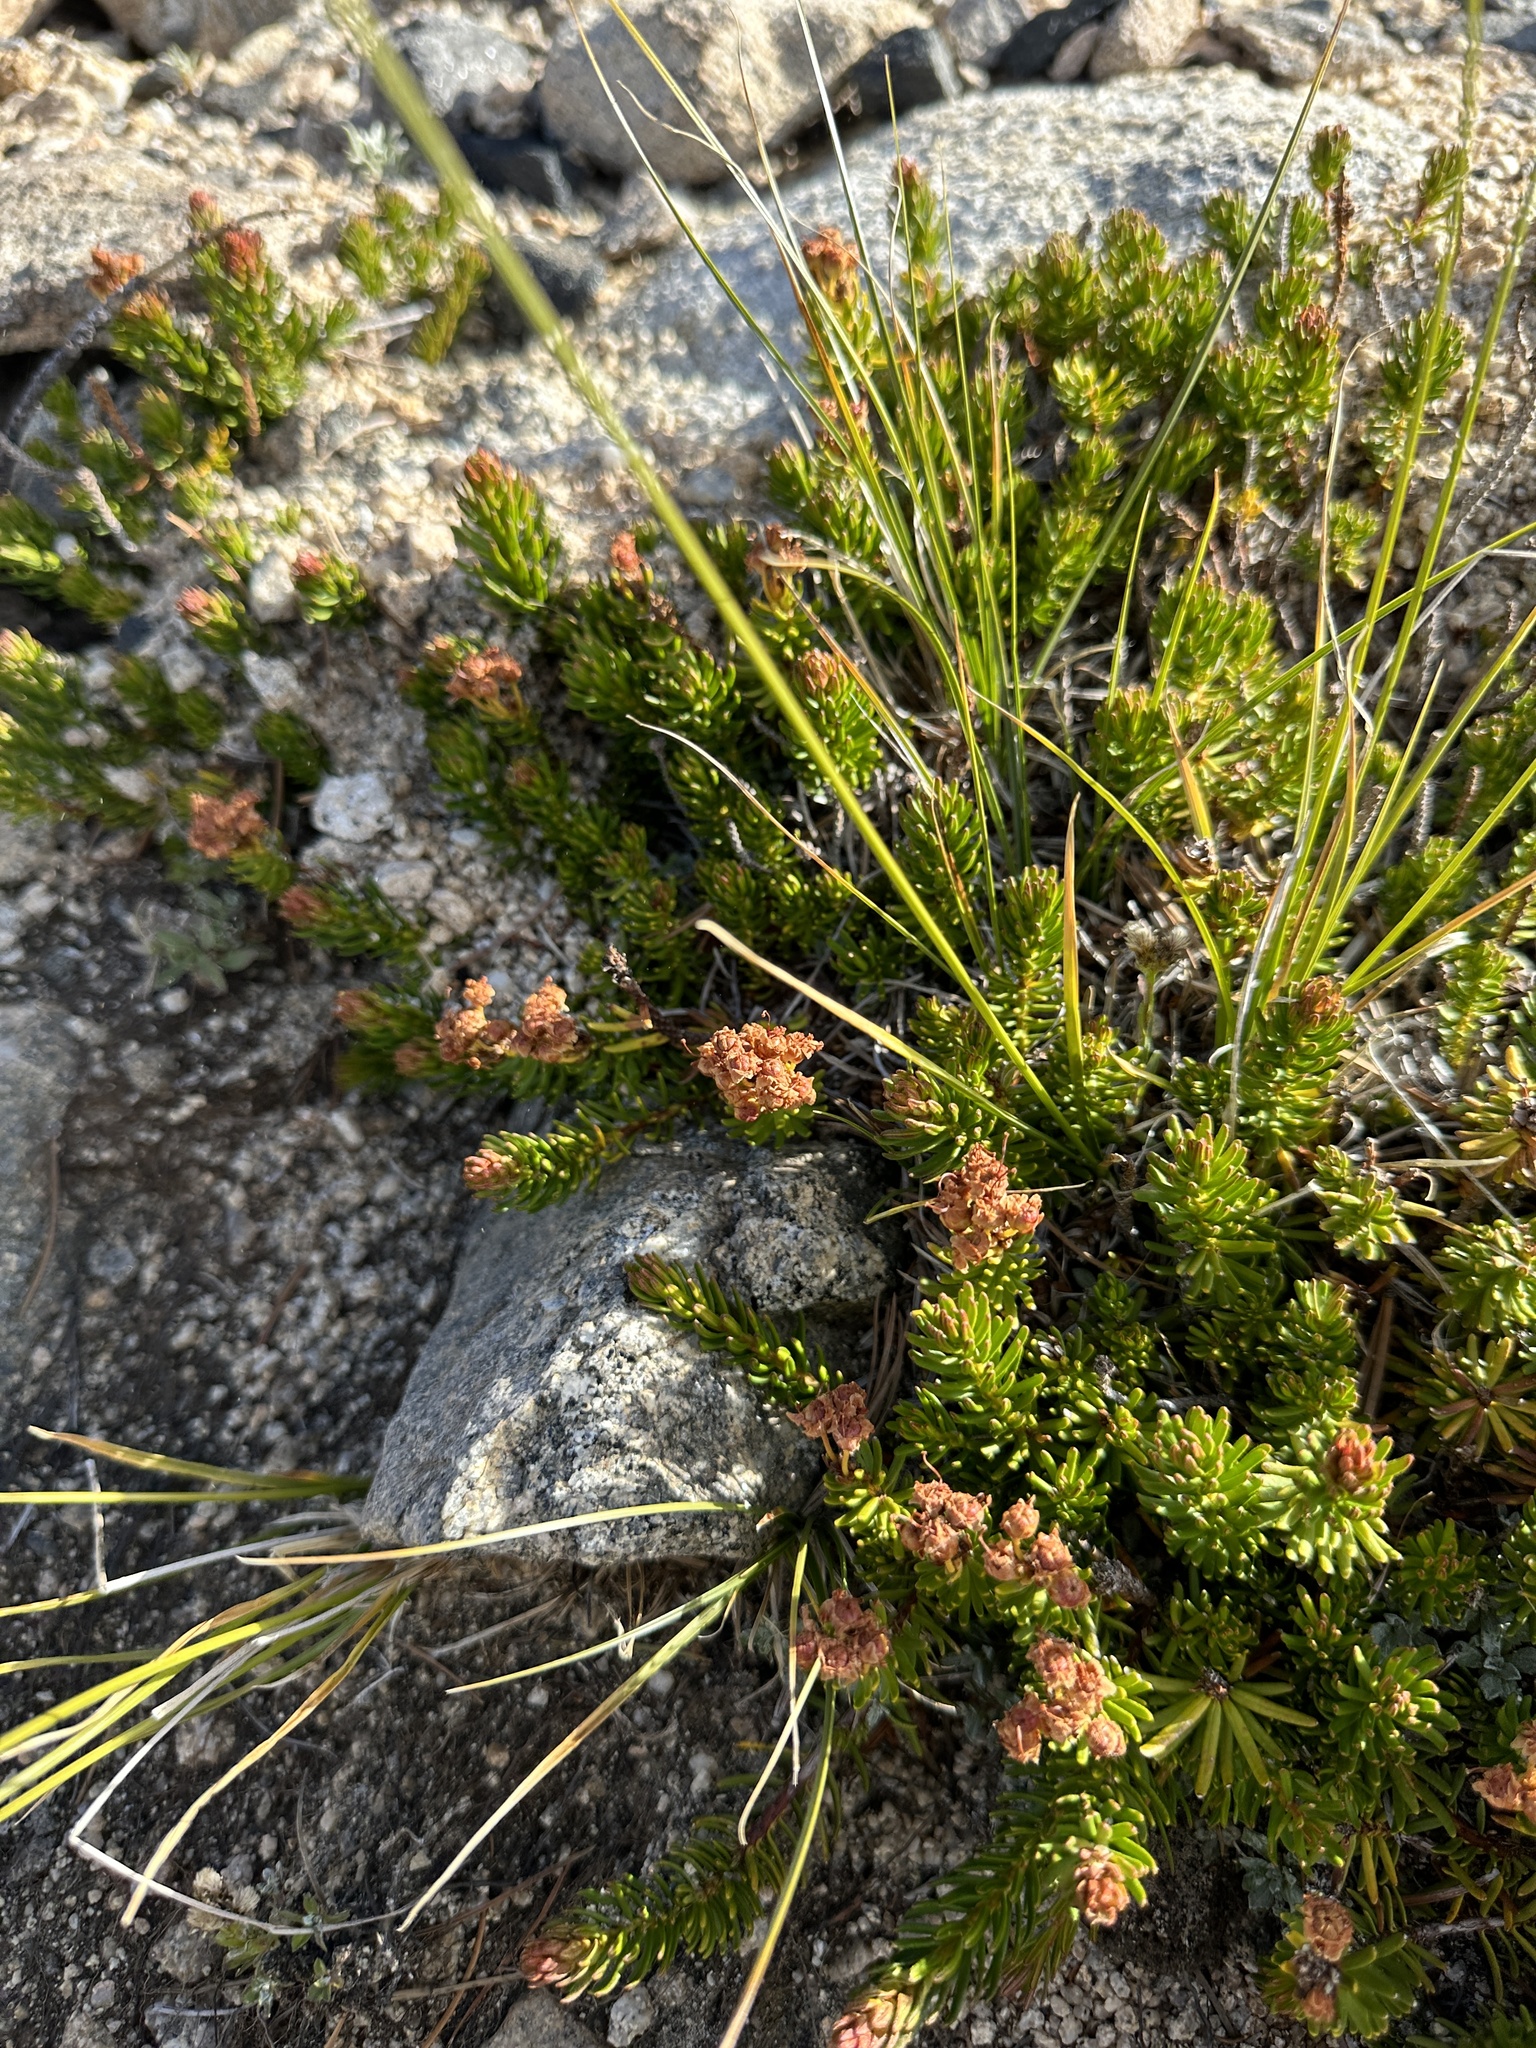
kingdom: Plantae
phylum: Tracheophyta
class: Magnoliopsida
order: Ericales
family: Ericaceae
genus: Phyllodoce
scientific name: Phyllodoce breweri
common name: Brewer's mountain-heather
